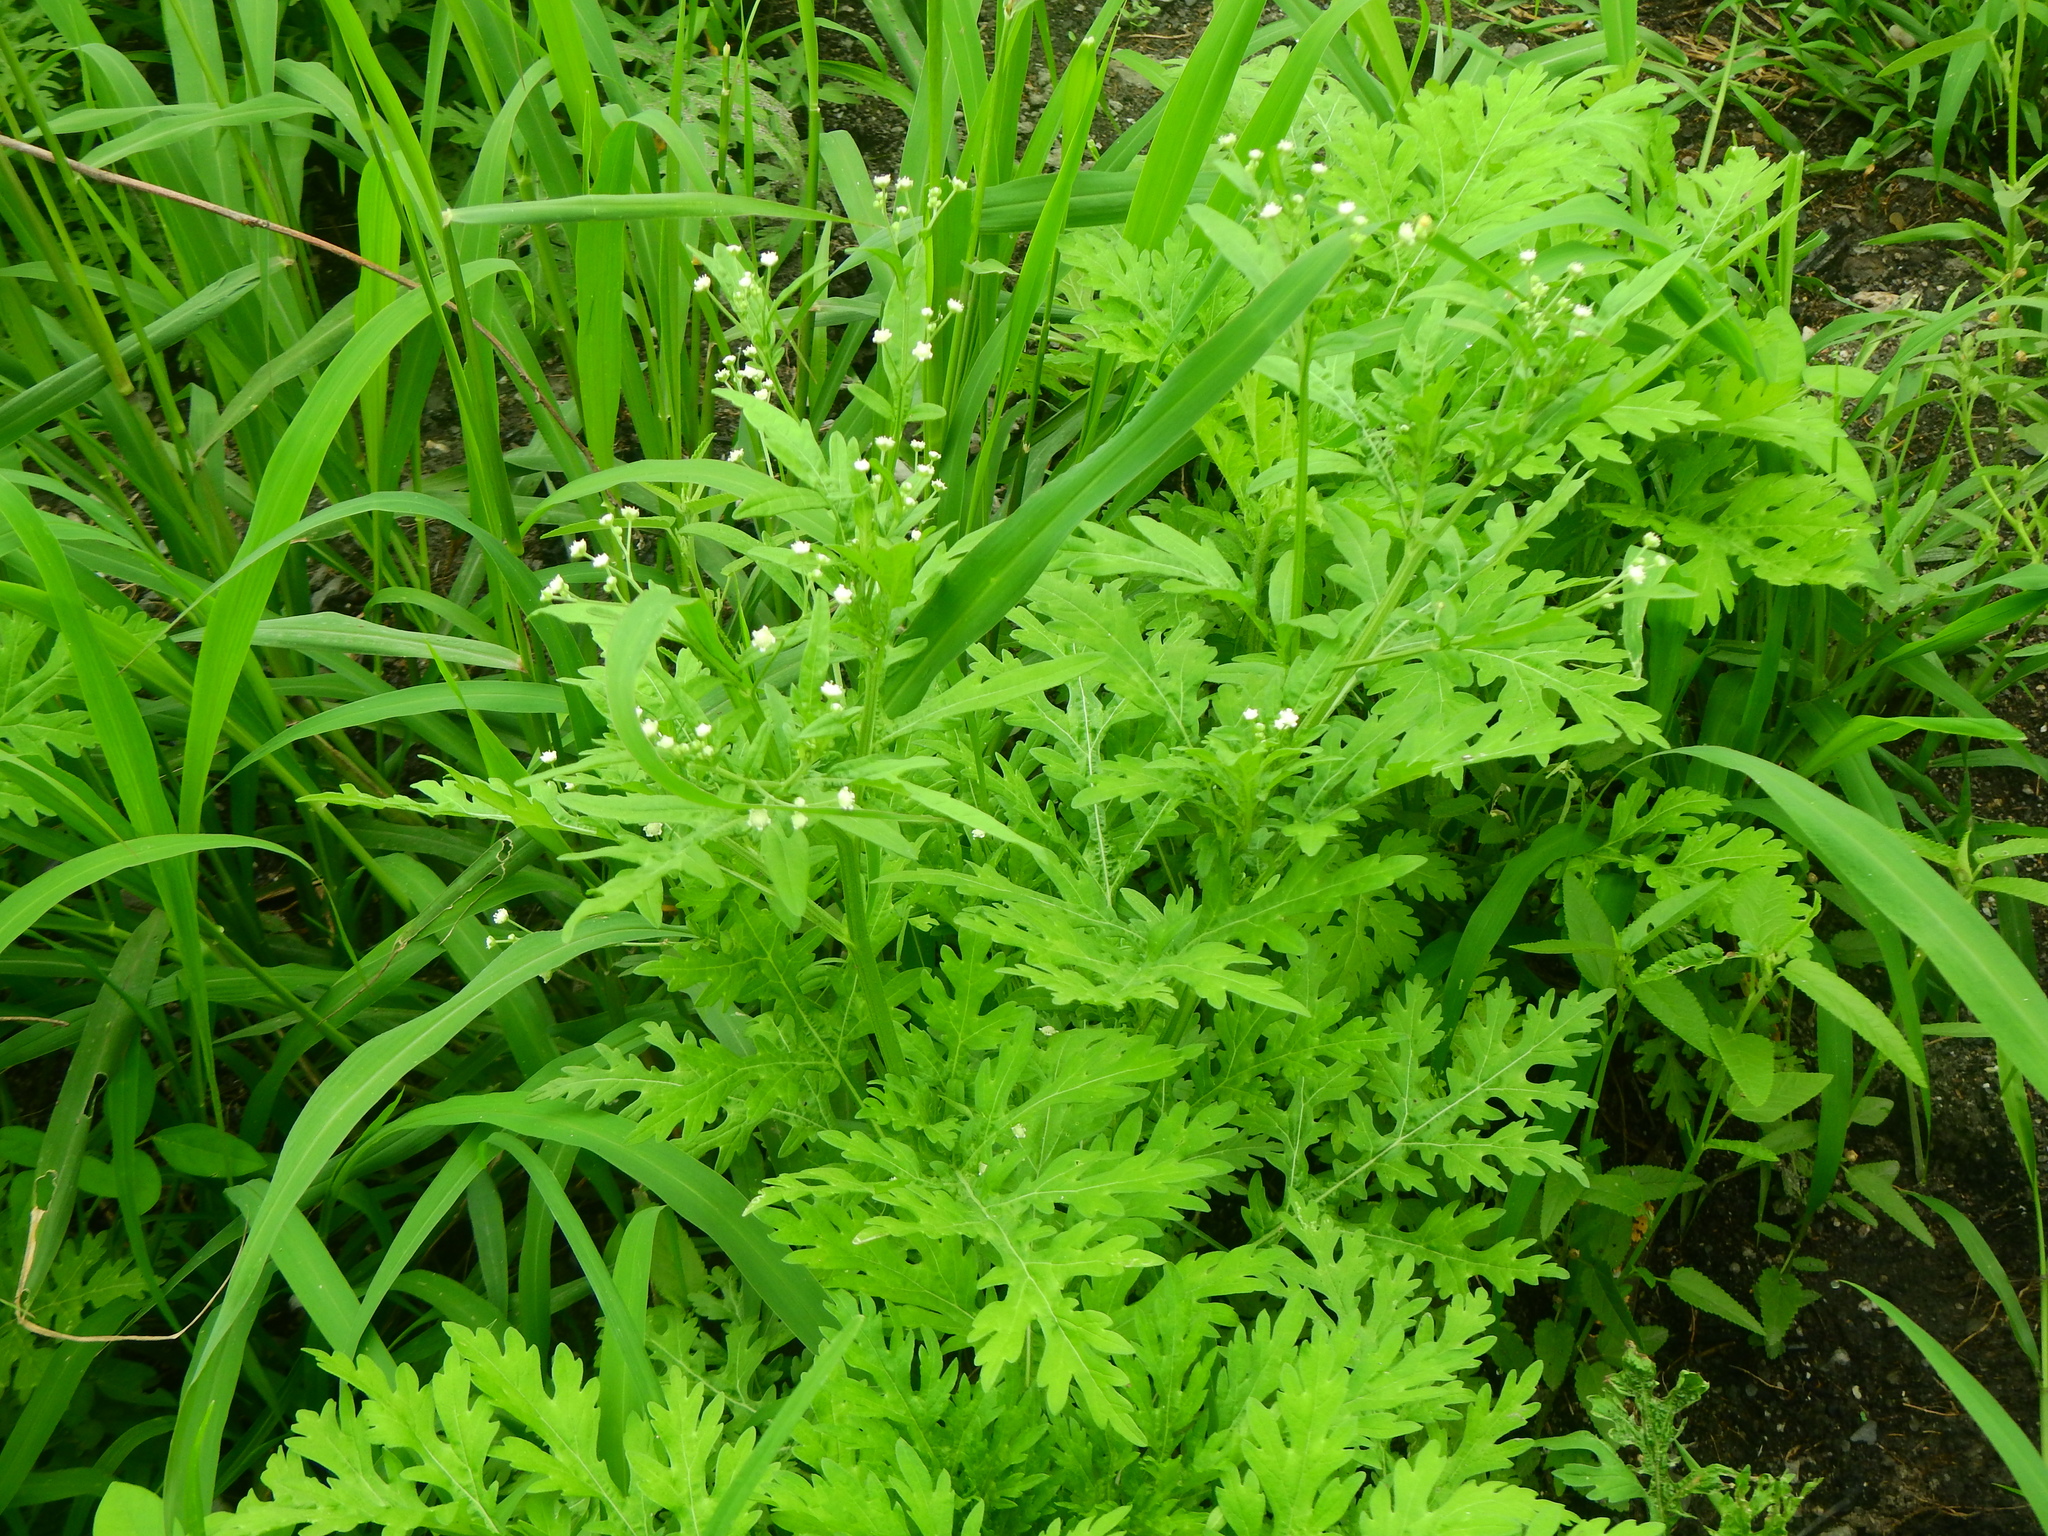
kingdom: Plantae
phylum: Tracheophyta
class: Magnoliopsida
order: Asterales
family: Asteraceae
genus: Parthenium
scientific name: Parthenium hysterophorus
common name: Santa maria feverfew
